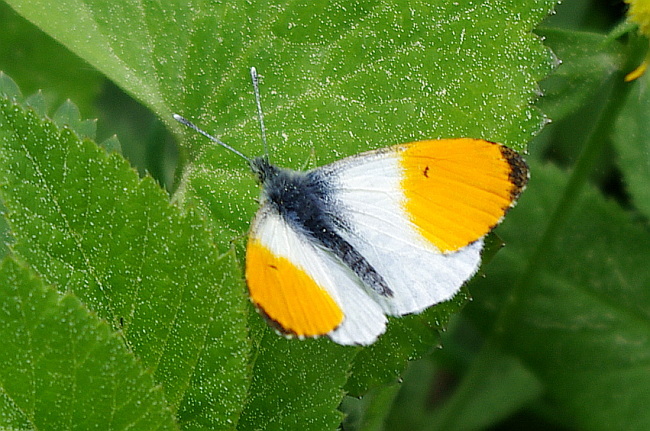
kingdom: Animalia
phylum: Arthropoda
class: Insecta
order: Lepidoptera
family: Pieridae
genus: Anthocharis
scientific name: Anthocharis cardamines
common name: Orange-tip
